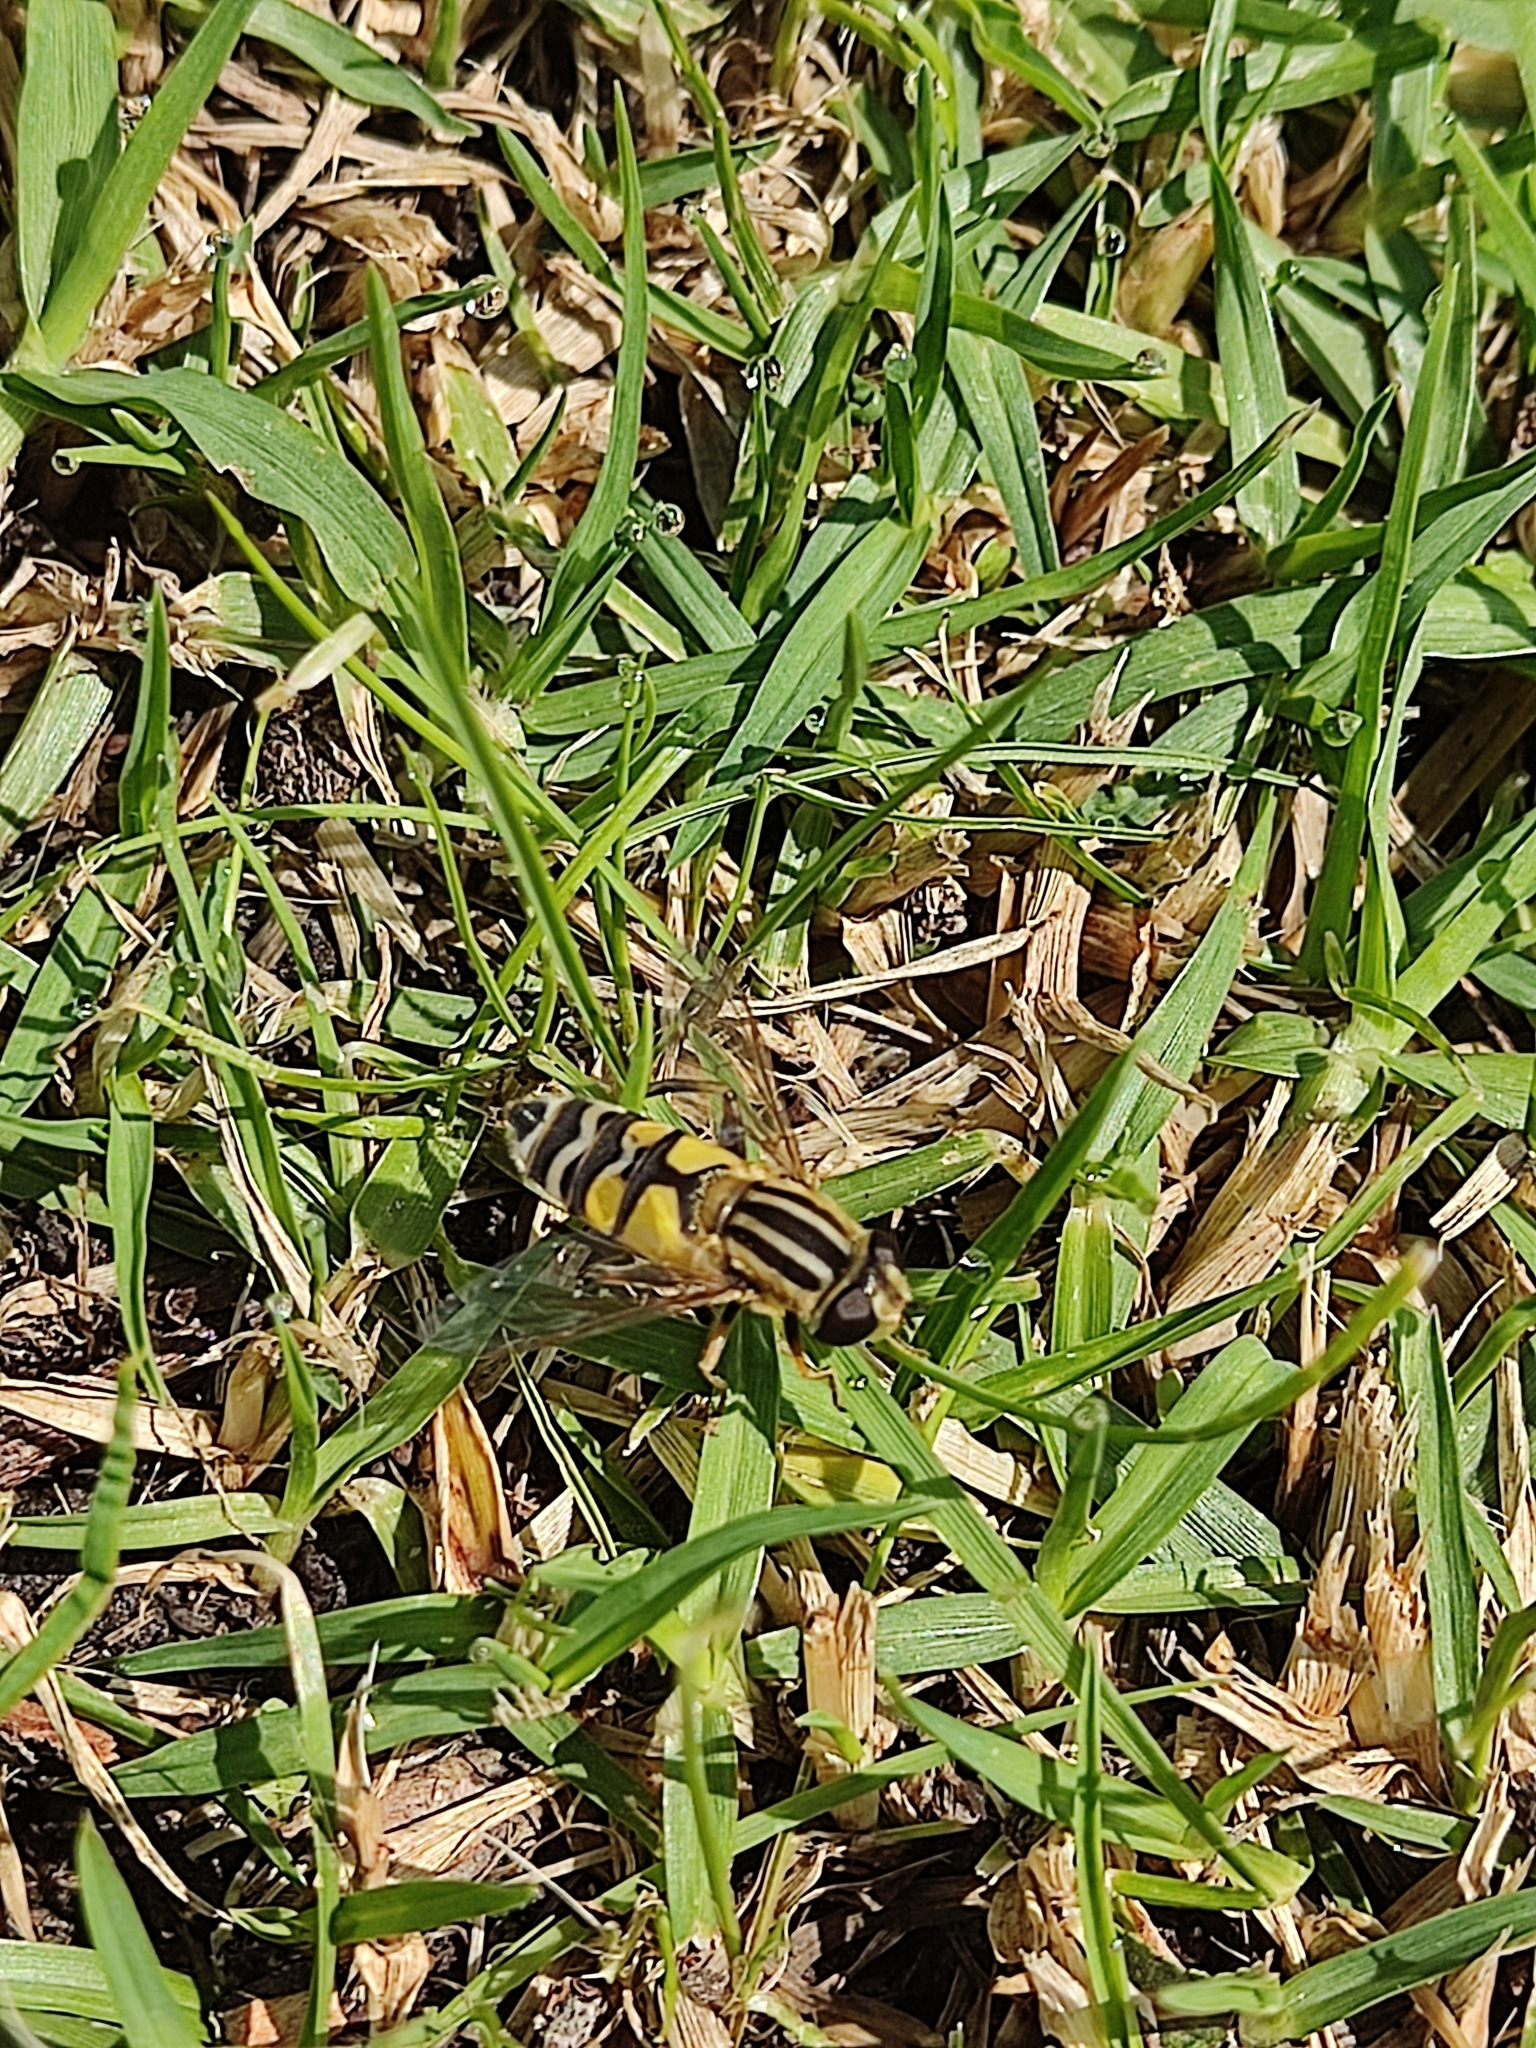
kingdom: Animalia
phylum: Arthropoda
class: Insecta
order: Diptera
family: Syrphidae
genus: Helophilus
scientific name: Helophilus latifrons
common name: Broad-headed marsh fly
